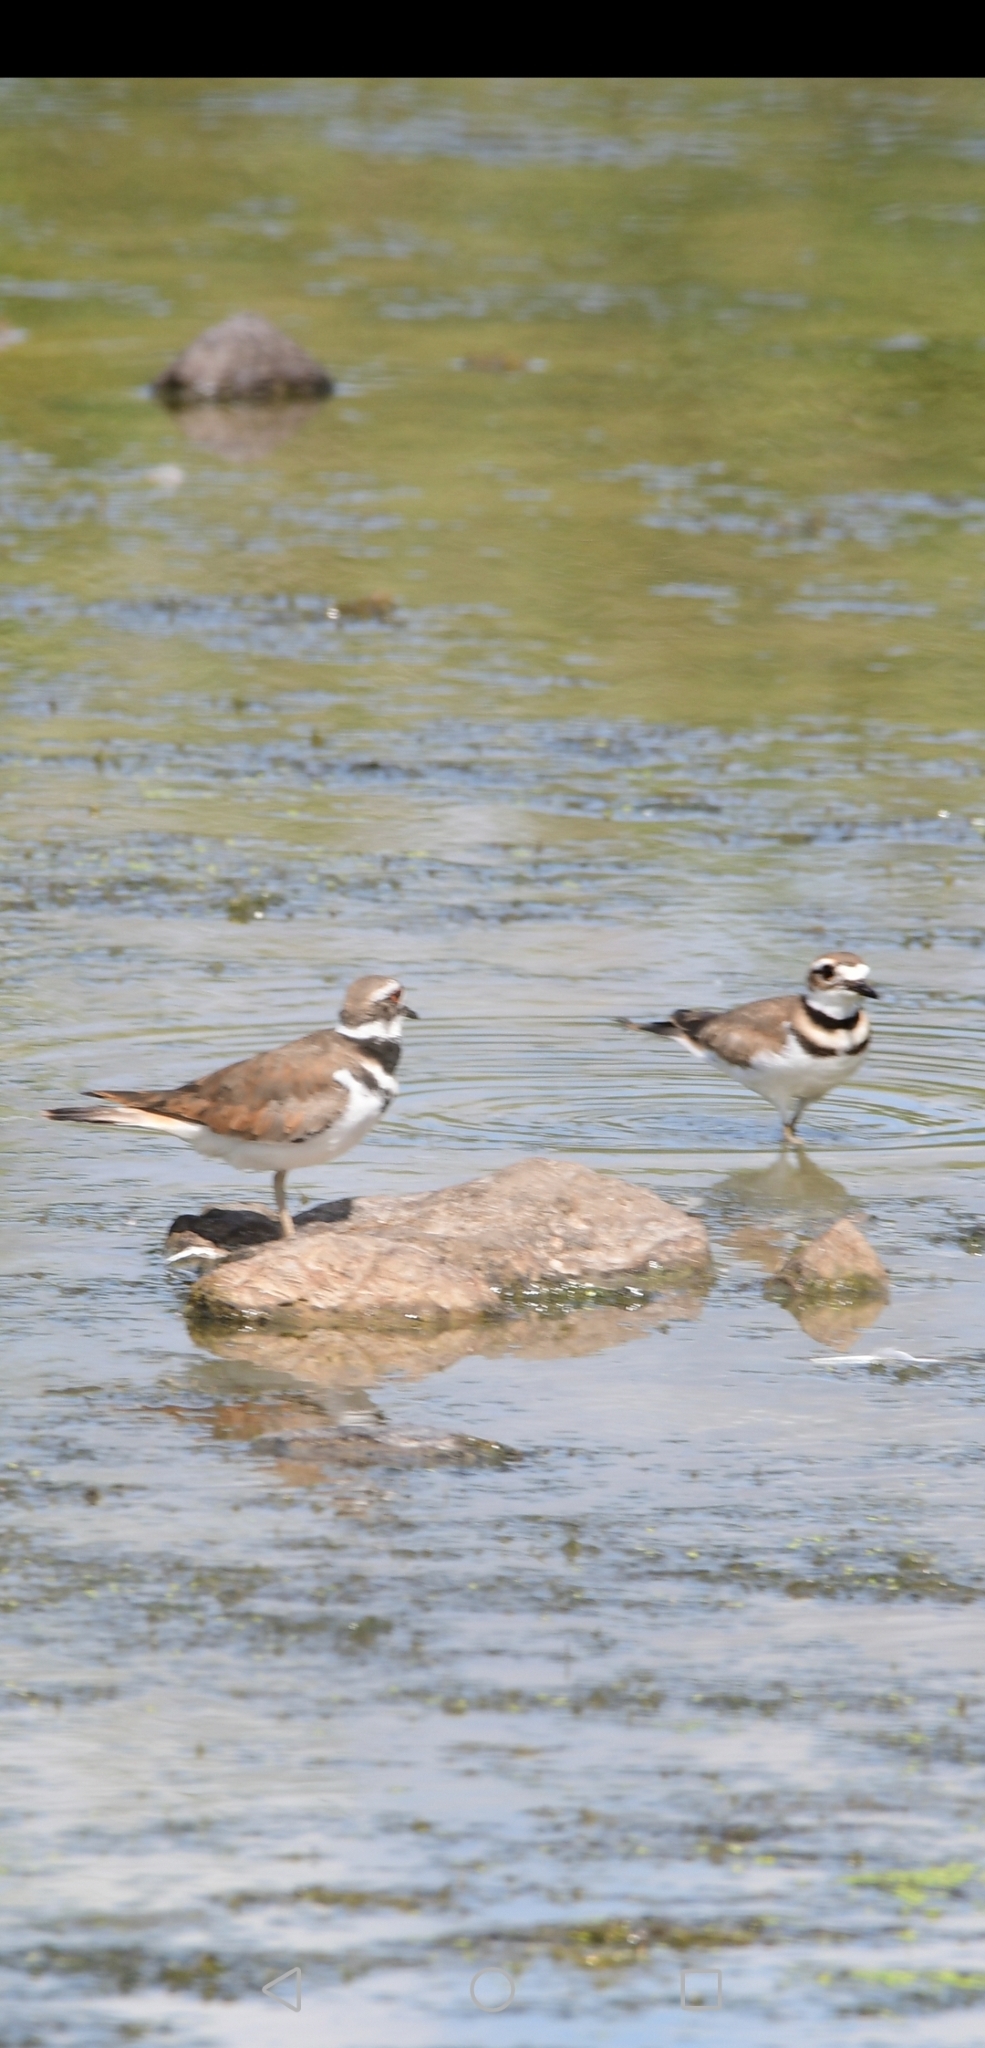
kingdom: Animalia
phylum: Chordata
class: Aves
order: Charadriiformes
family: Charadriidae
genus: Charadrius
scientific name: Charadrius vociferus
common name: Killdeer
